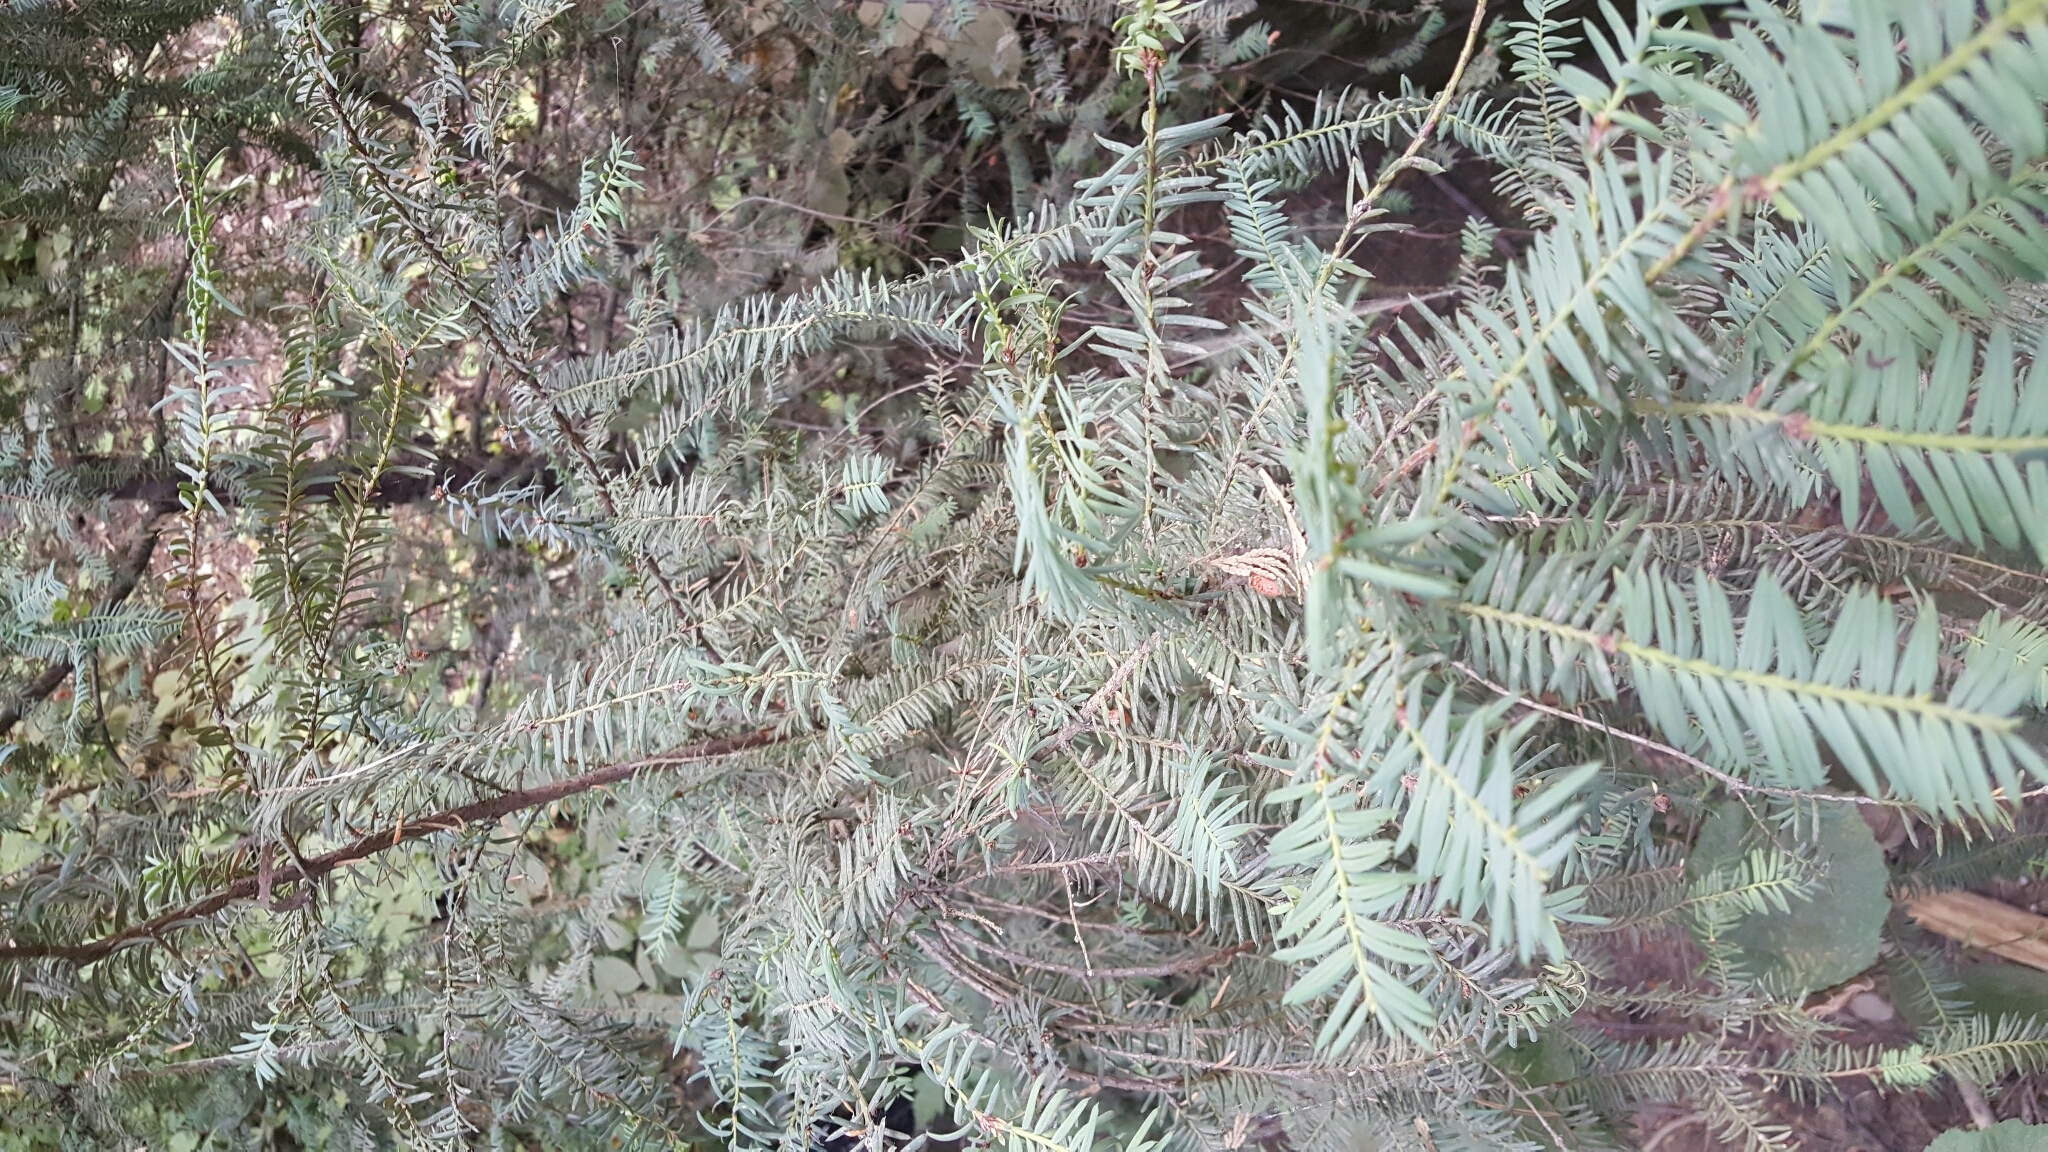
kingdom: Plantae
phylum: Tracheophyta
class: Pinopsida
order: Pinales
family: Pinaceae
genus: Abies
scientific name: Abies concolor
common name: Colorado fir
